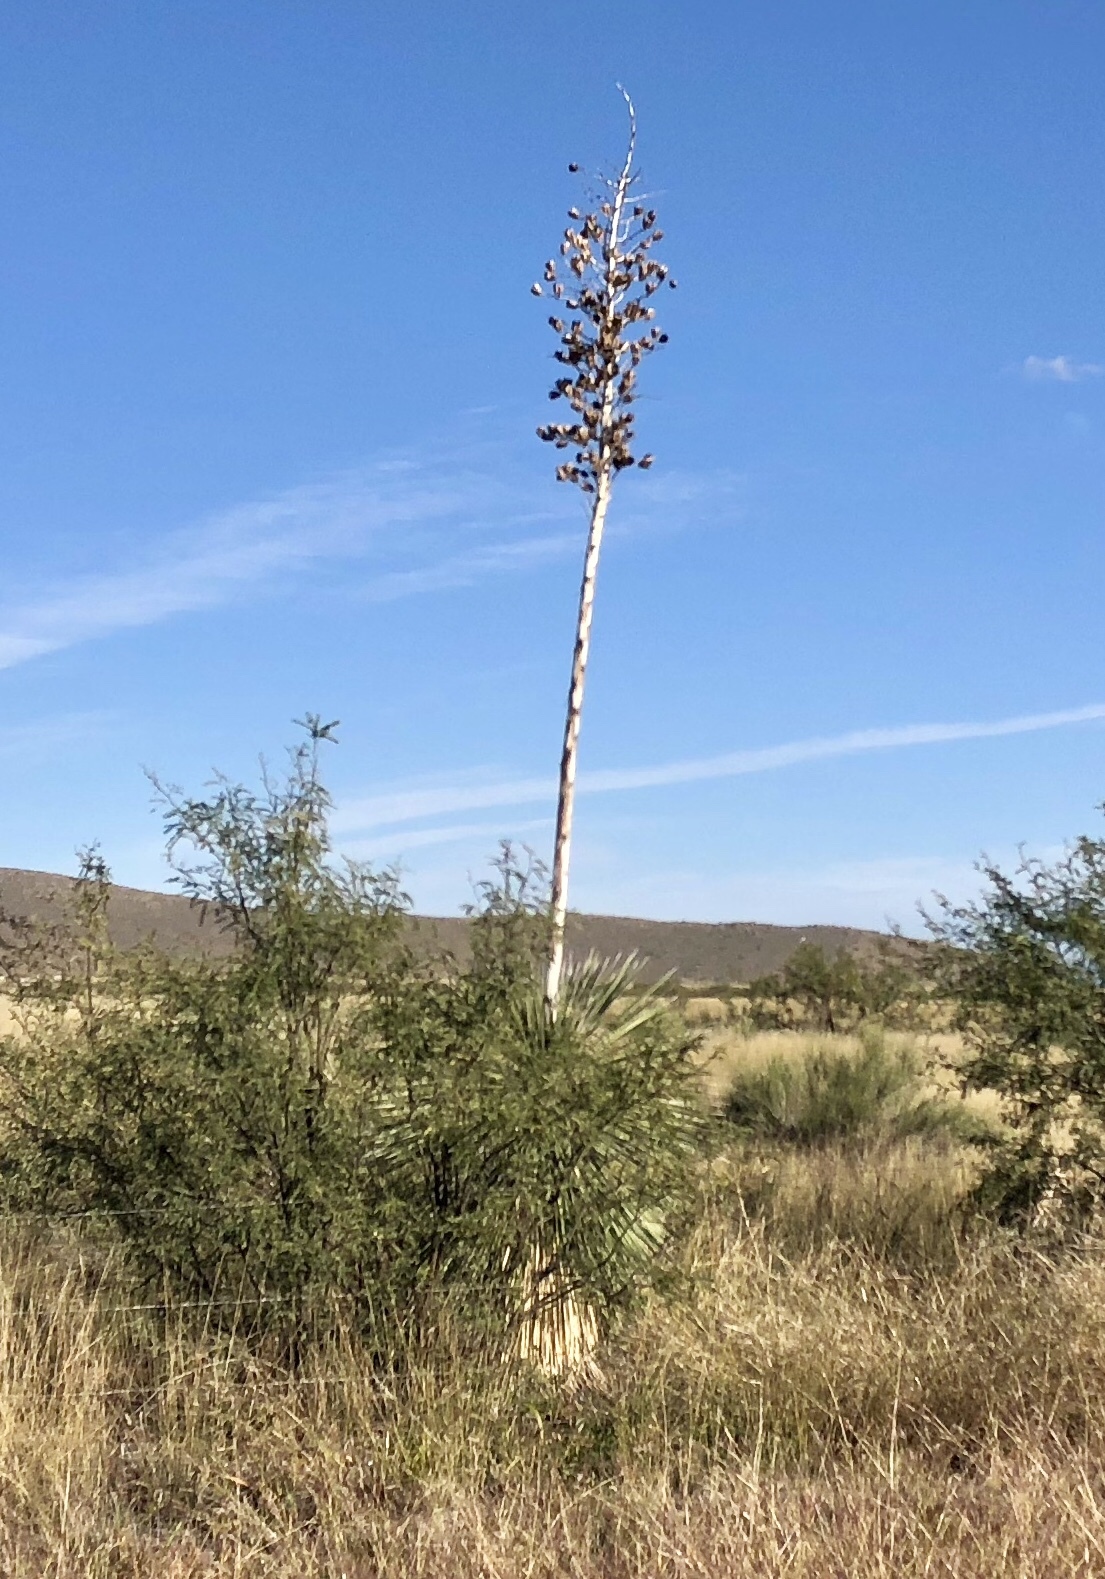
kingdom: Plantae
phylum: Tracheophyta
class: Liliopsida
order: Asparagales
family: Asparagaceae
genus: Yucca
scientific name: Yucca elata
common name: Palmella
